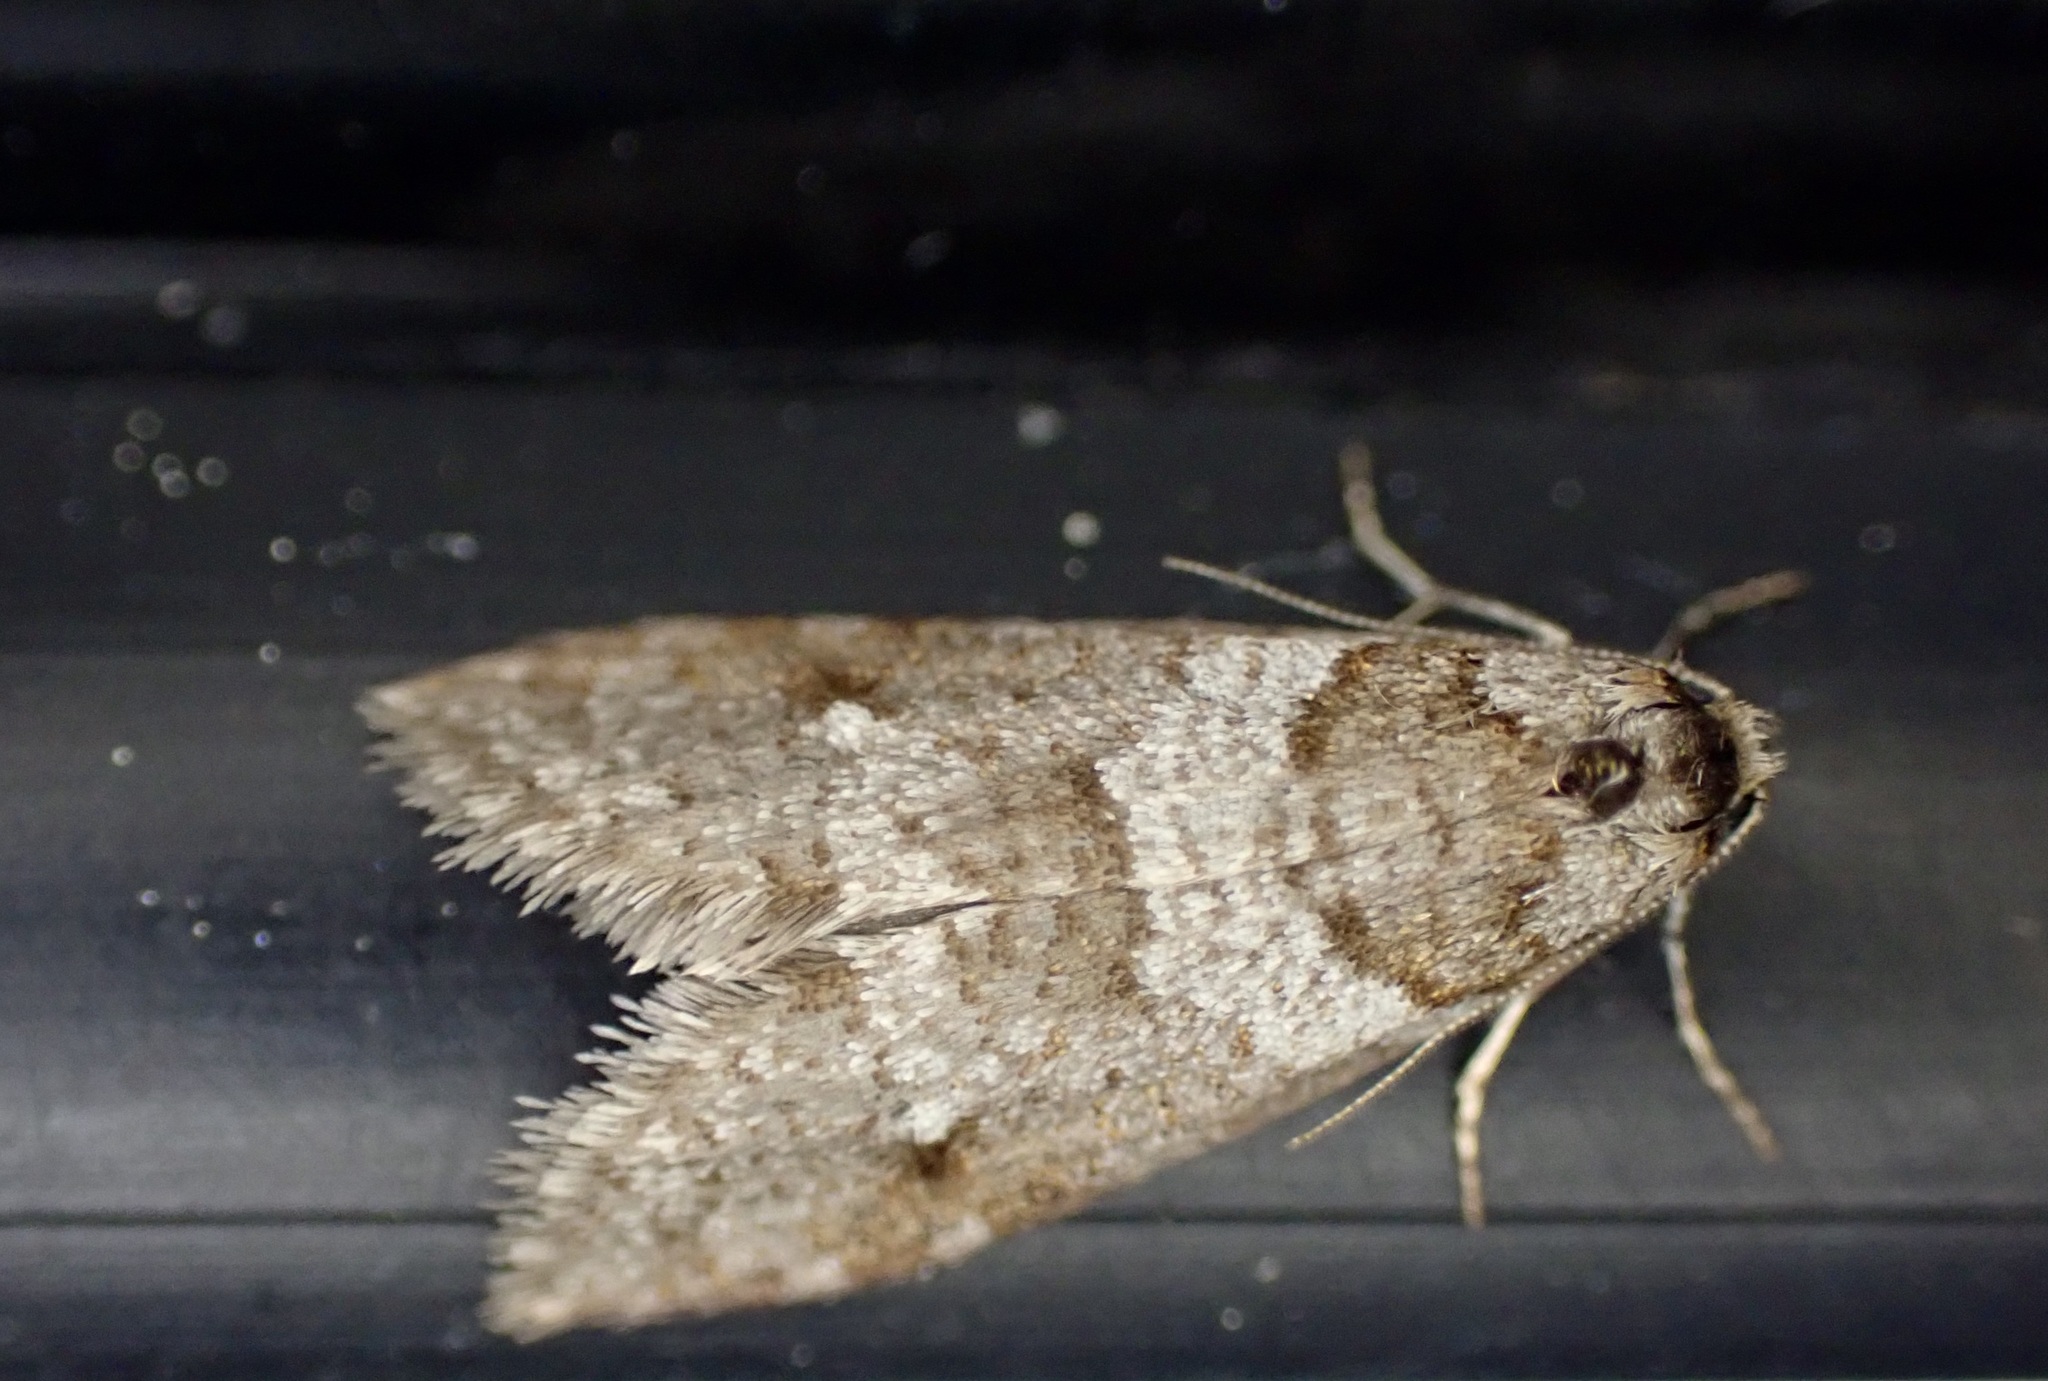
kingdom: Animalia
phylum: Arthropoda
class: Insecta
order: Lepidoptera
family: Psychidae
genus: Lepidoscia
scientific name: Lepidoscia heliochares
